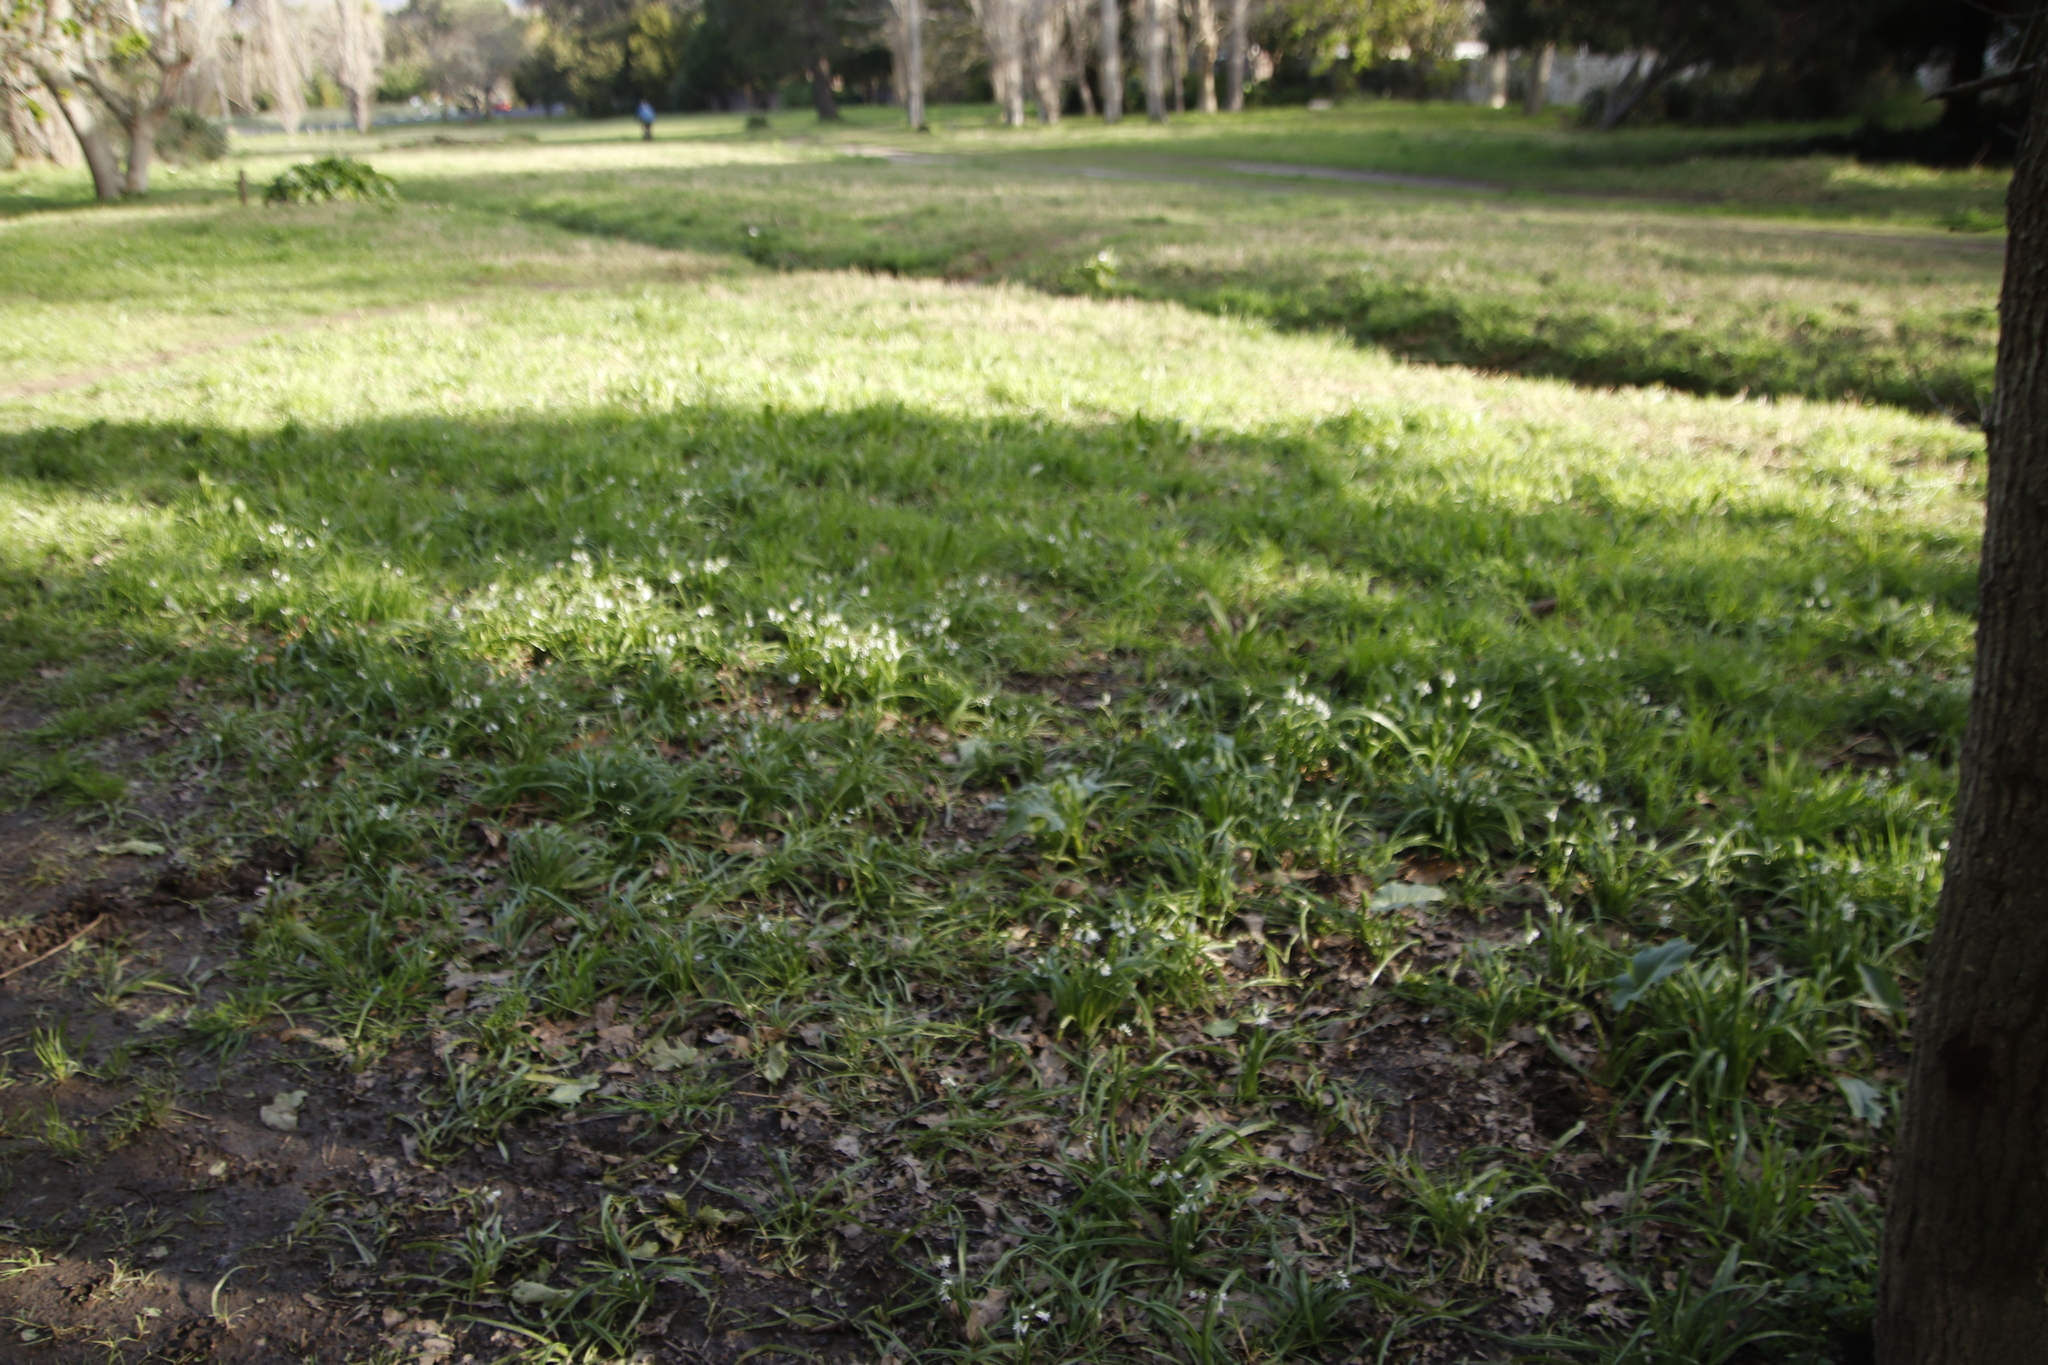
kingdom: Plantae
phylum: Tracheophyta
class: Liliopsida
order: Asparagales
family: Amaryllidaceae
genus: Allium
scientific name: Allium triquetrum
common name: Three-cornered garlic
